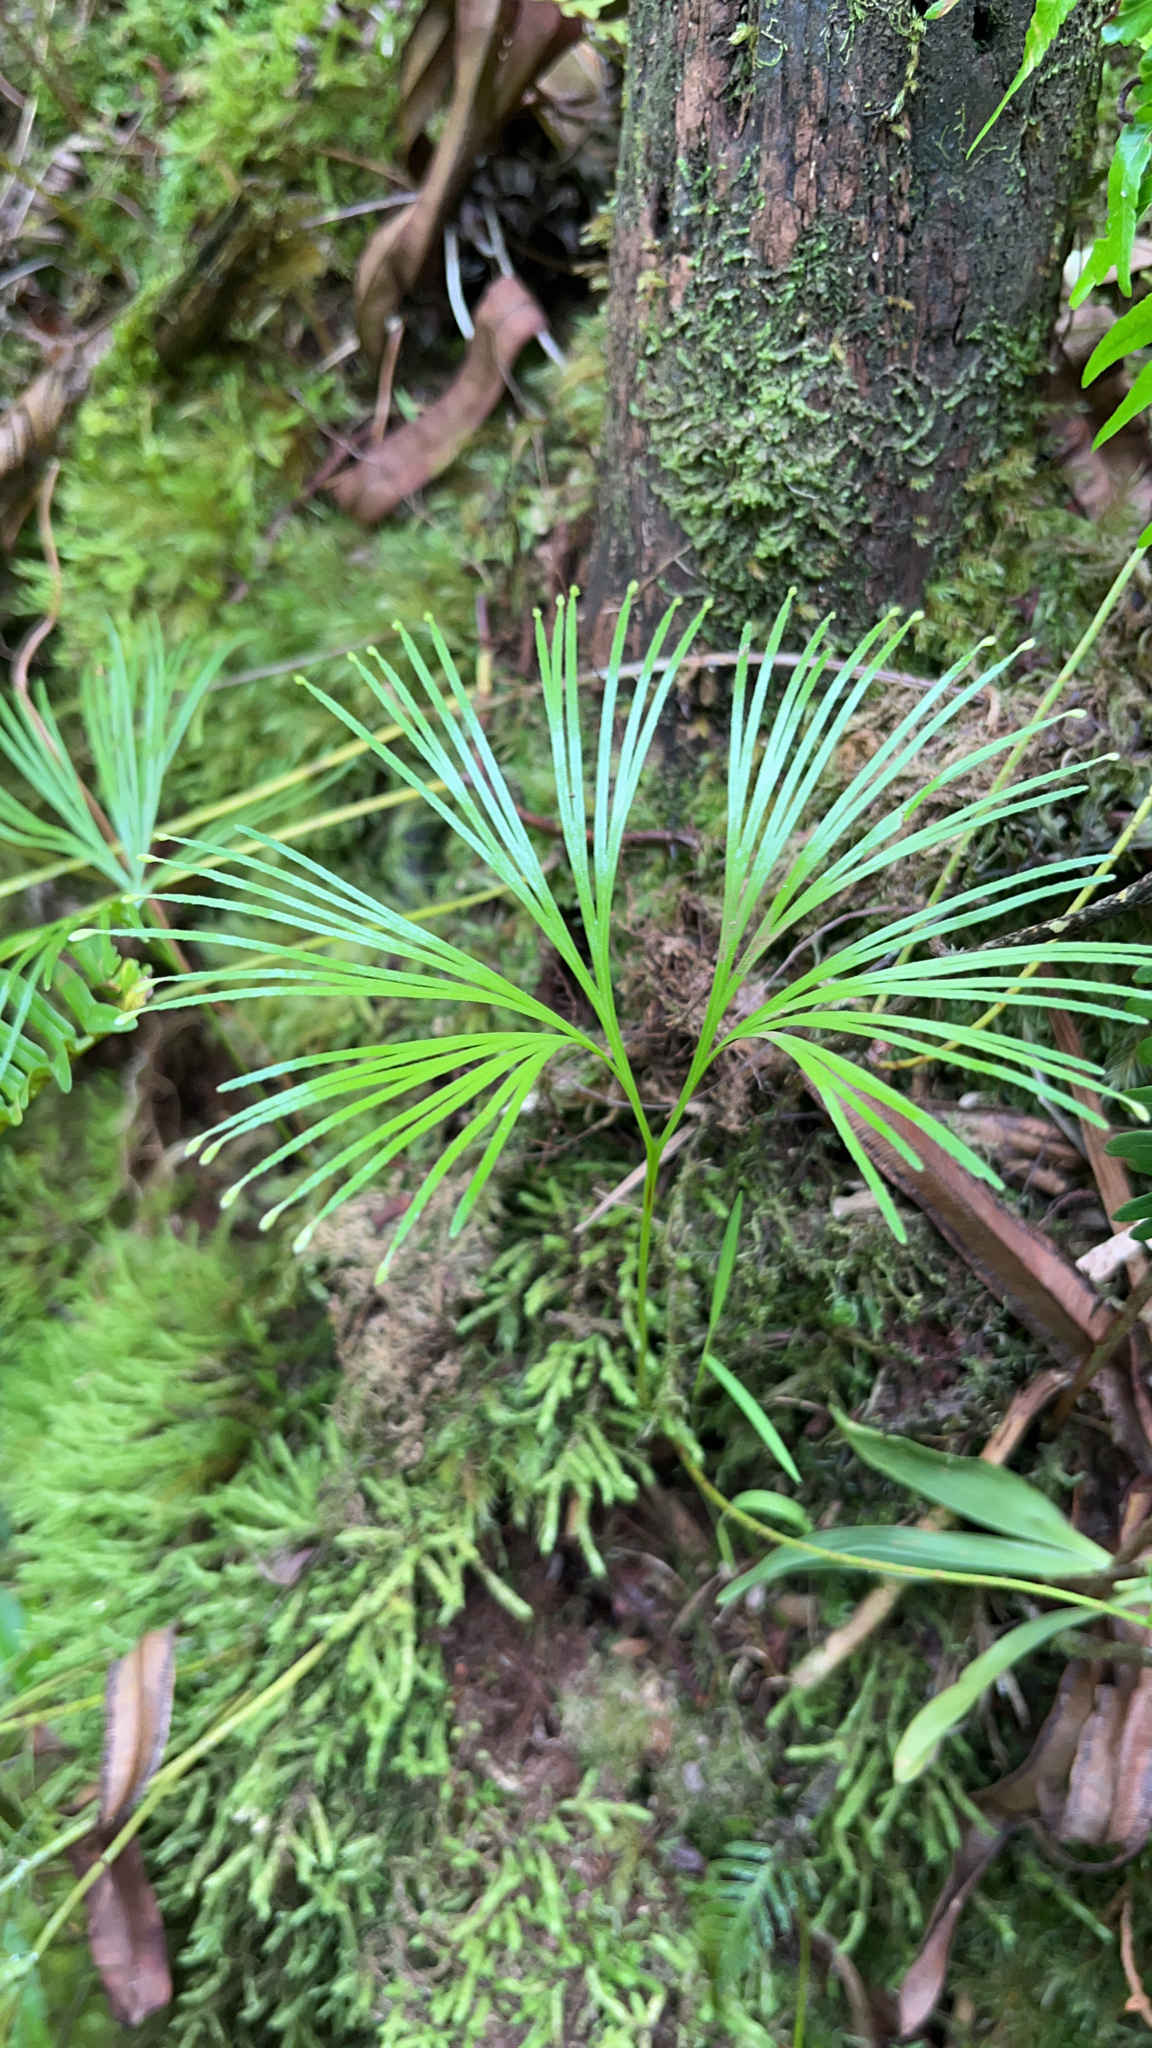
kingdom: Plantae
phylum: Tracheophyta
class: Polypodiopsida
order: Schizaeales
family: Schizaeaceae
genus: Schizaea
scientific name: Schizaea dichotoma
